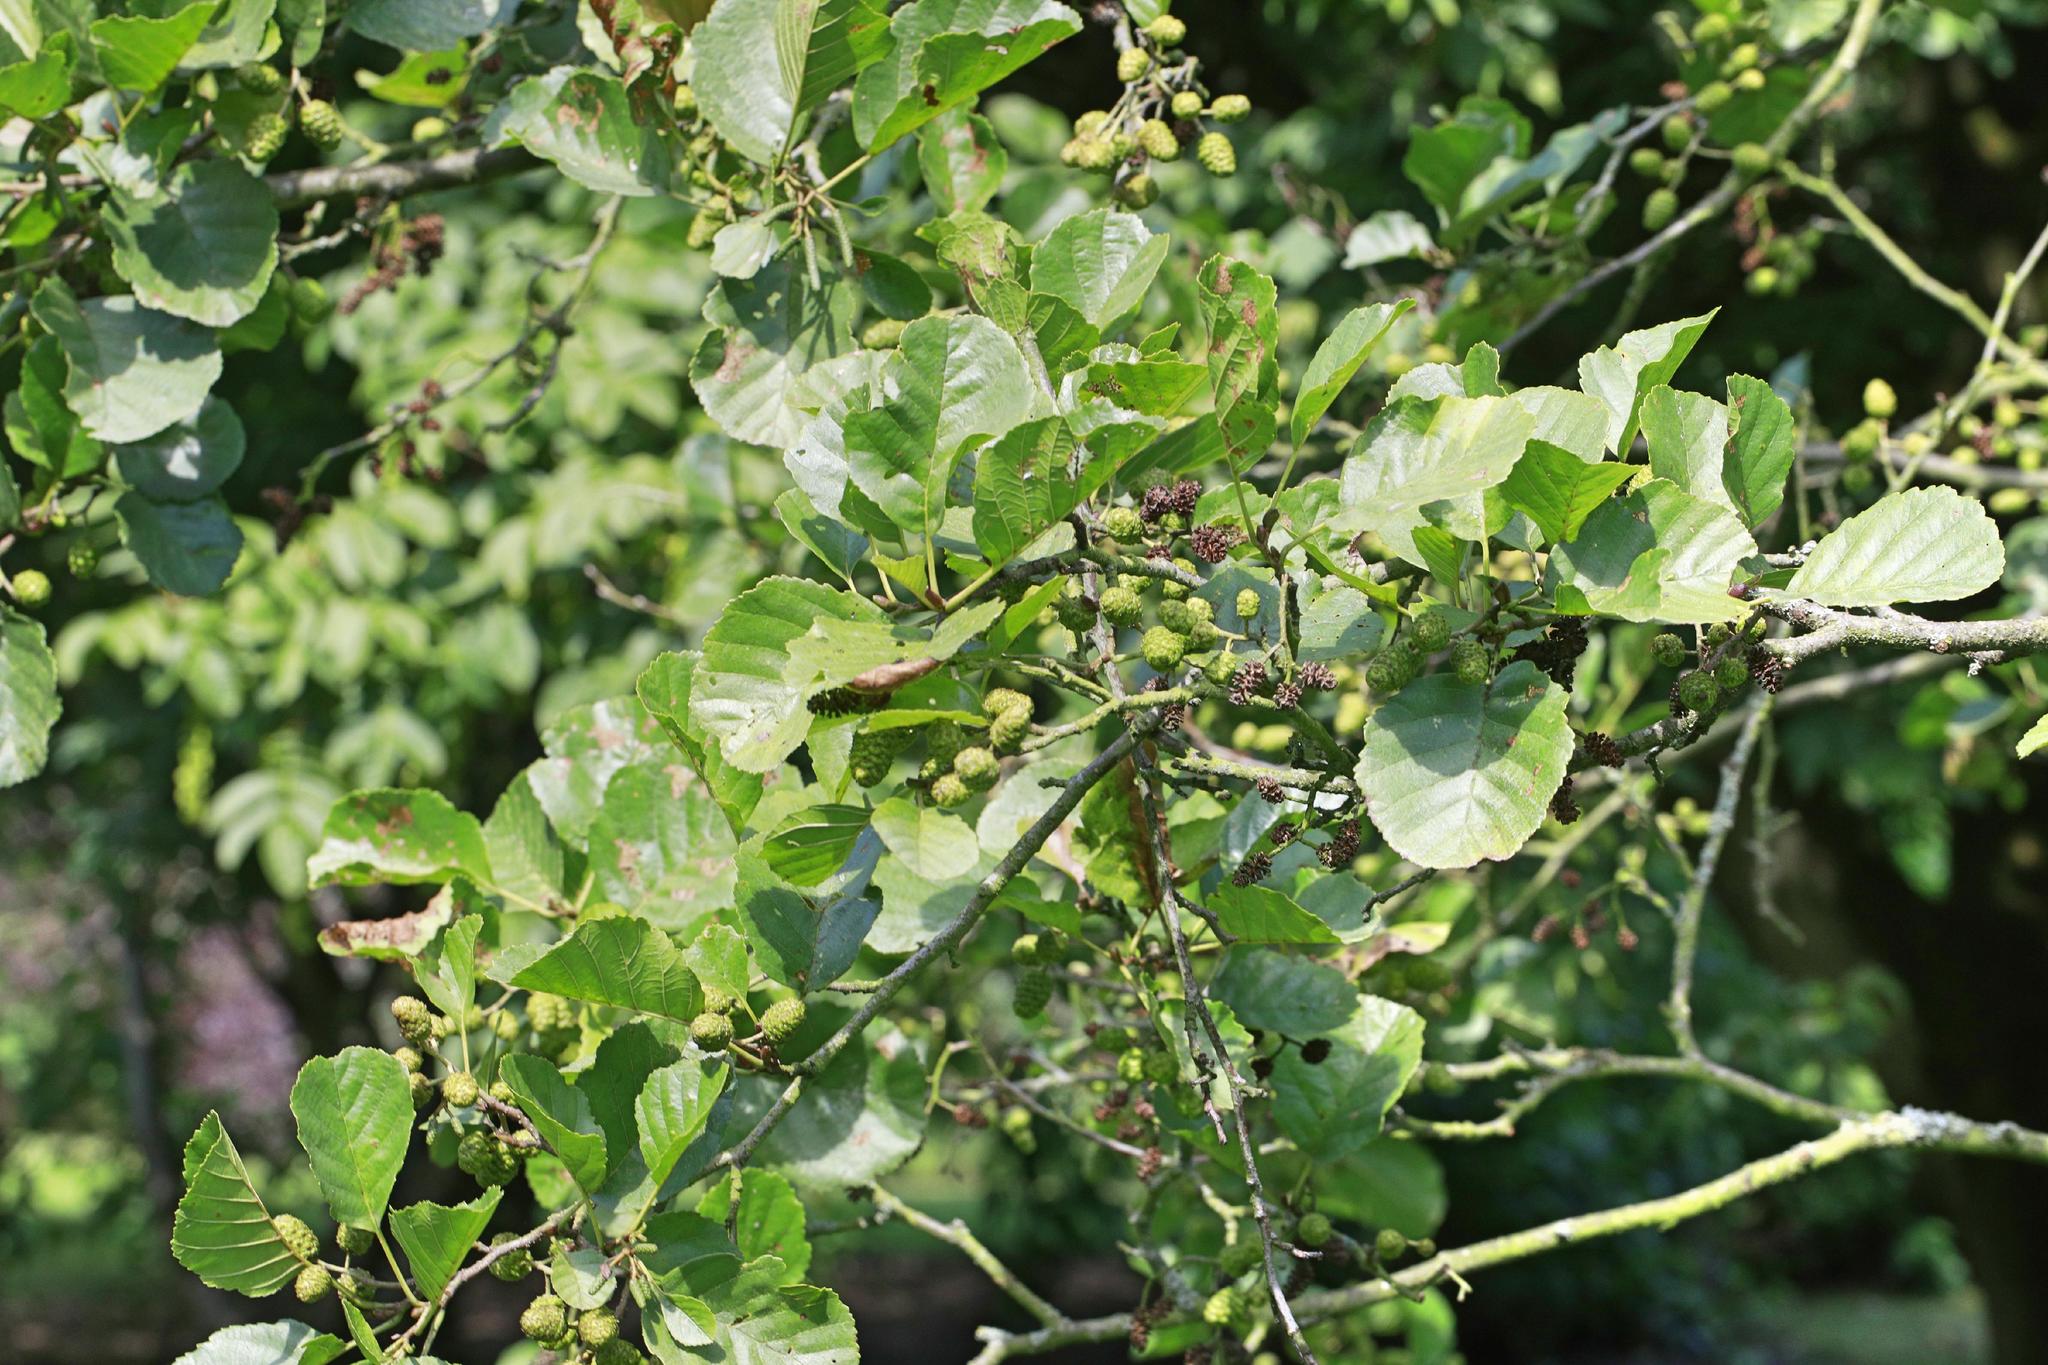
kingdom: Plantae
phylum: Tracheophyta
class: Magnoliopsida
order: Fagales
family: Betulaceae
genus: Alnus
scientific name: Alnus glutinosa
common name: Black alder
